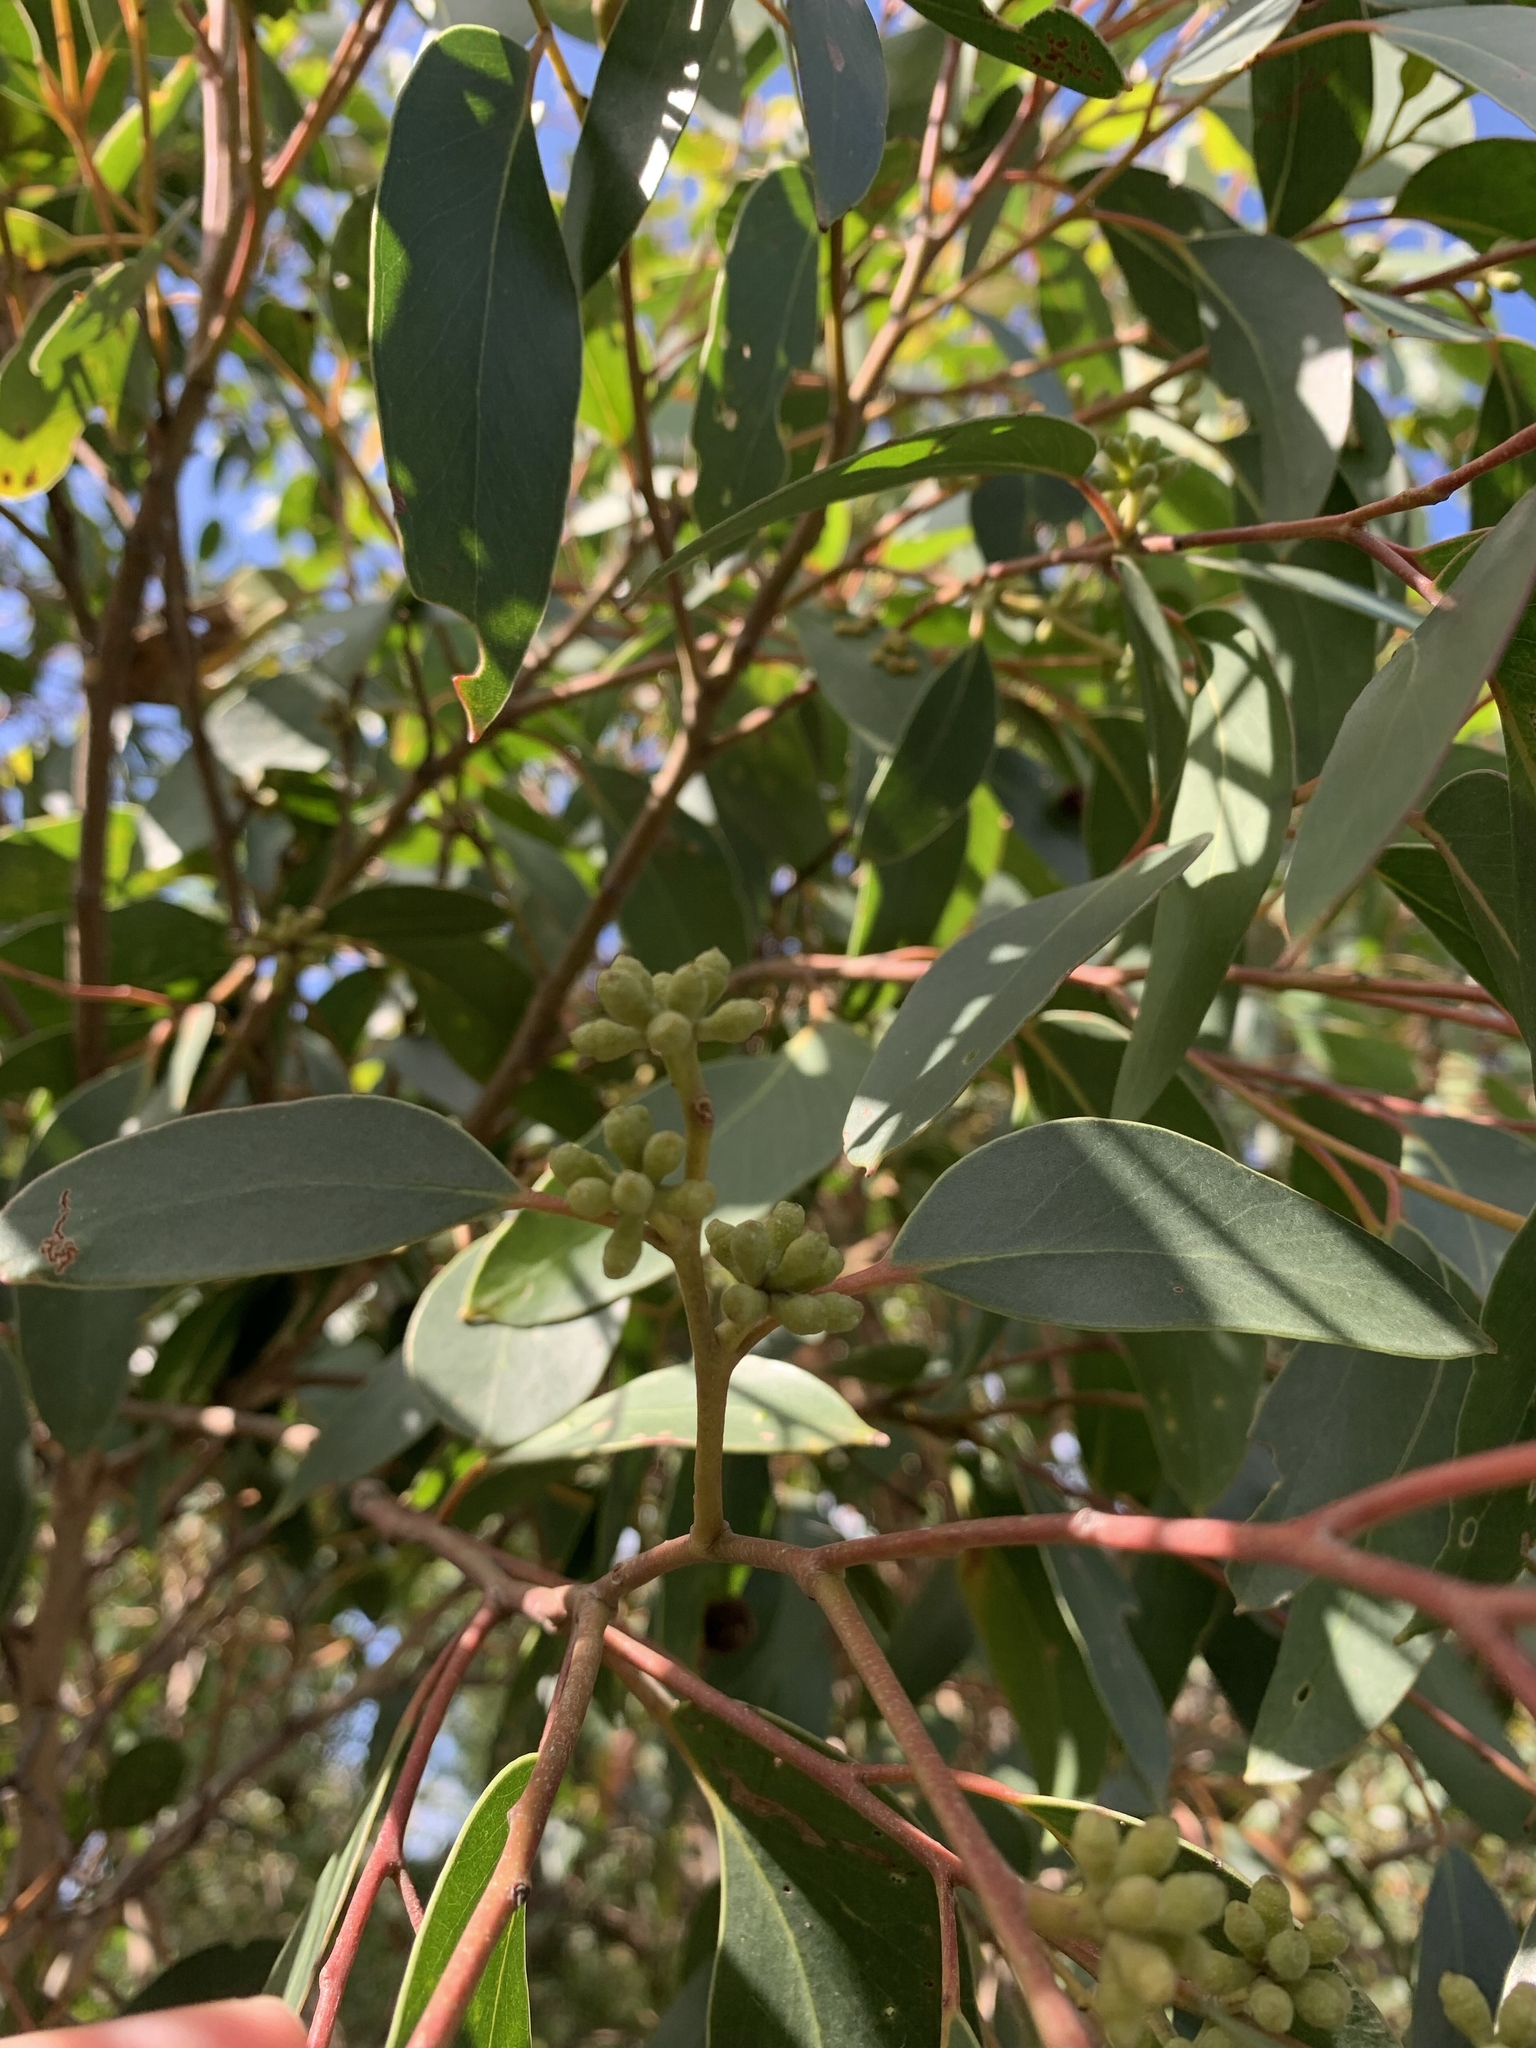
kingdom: Plantae
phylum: Tracheophyta
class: Magnoliopsida
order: Myrtales
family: Myrtaceae
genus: Eucalyptus
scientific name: Eucalyptus baxteri
